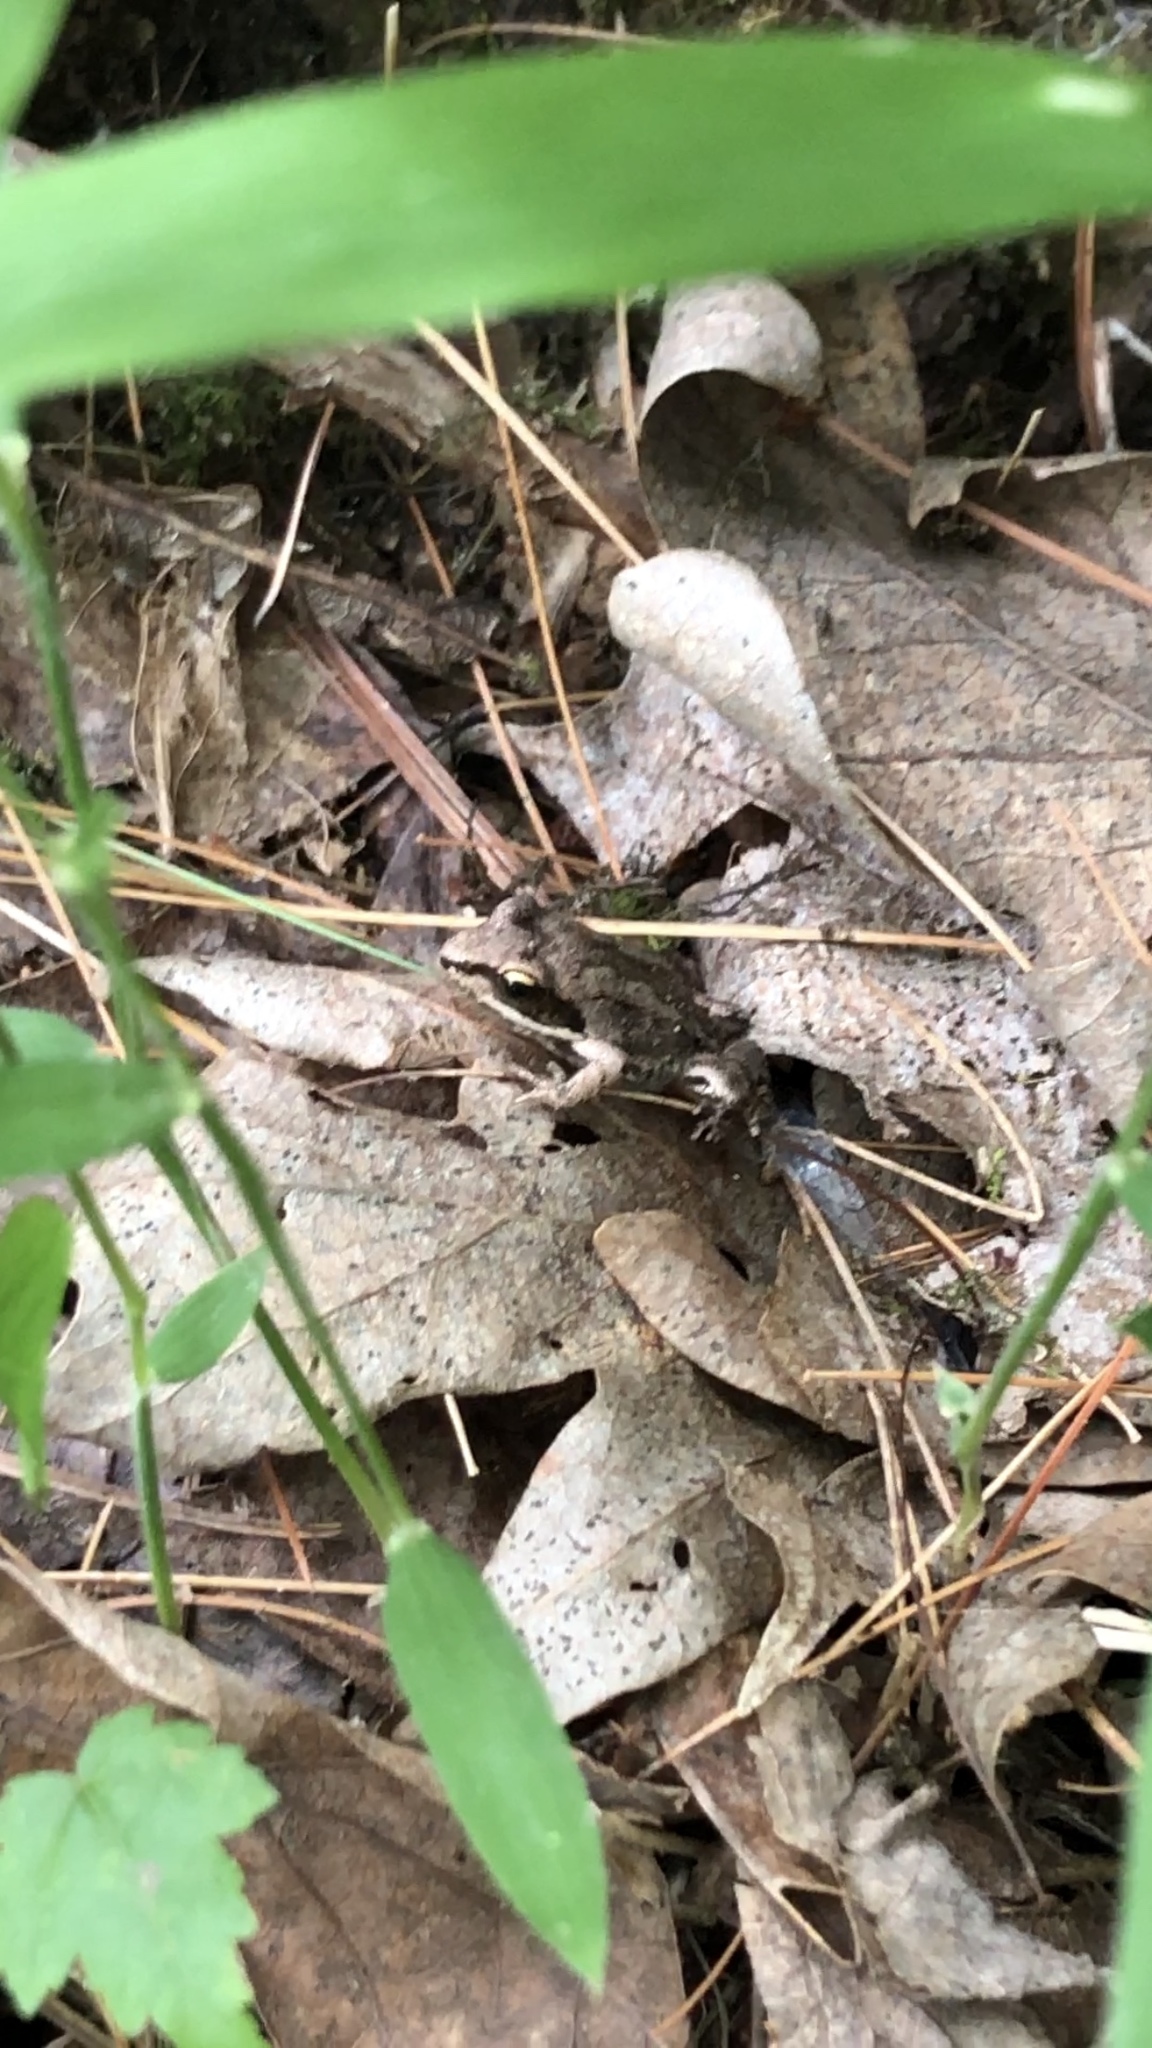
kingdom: Animalia
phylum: Chordata
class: Amphibia
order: Anura
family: Ranidae
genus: Lithobates
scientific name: Lithobates sylvaticus
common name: Wood frog
